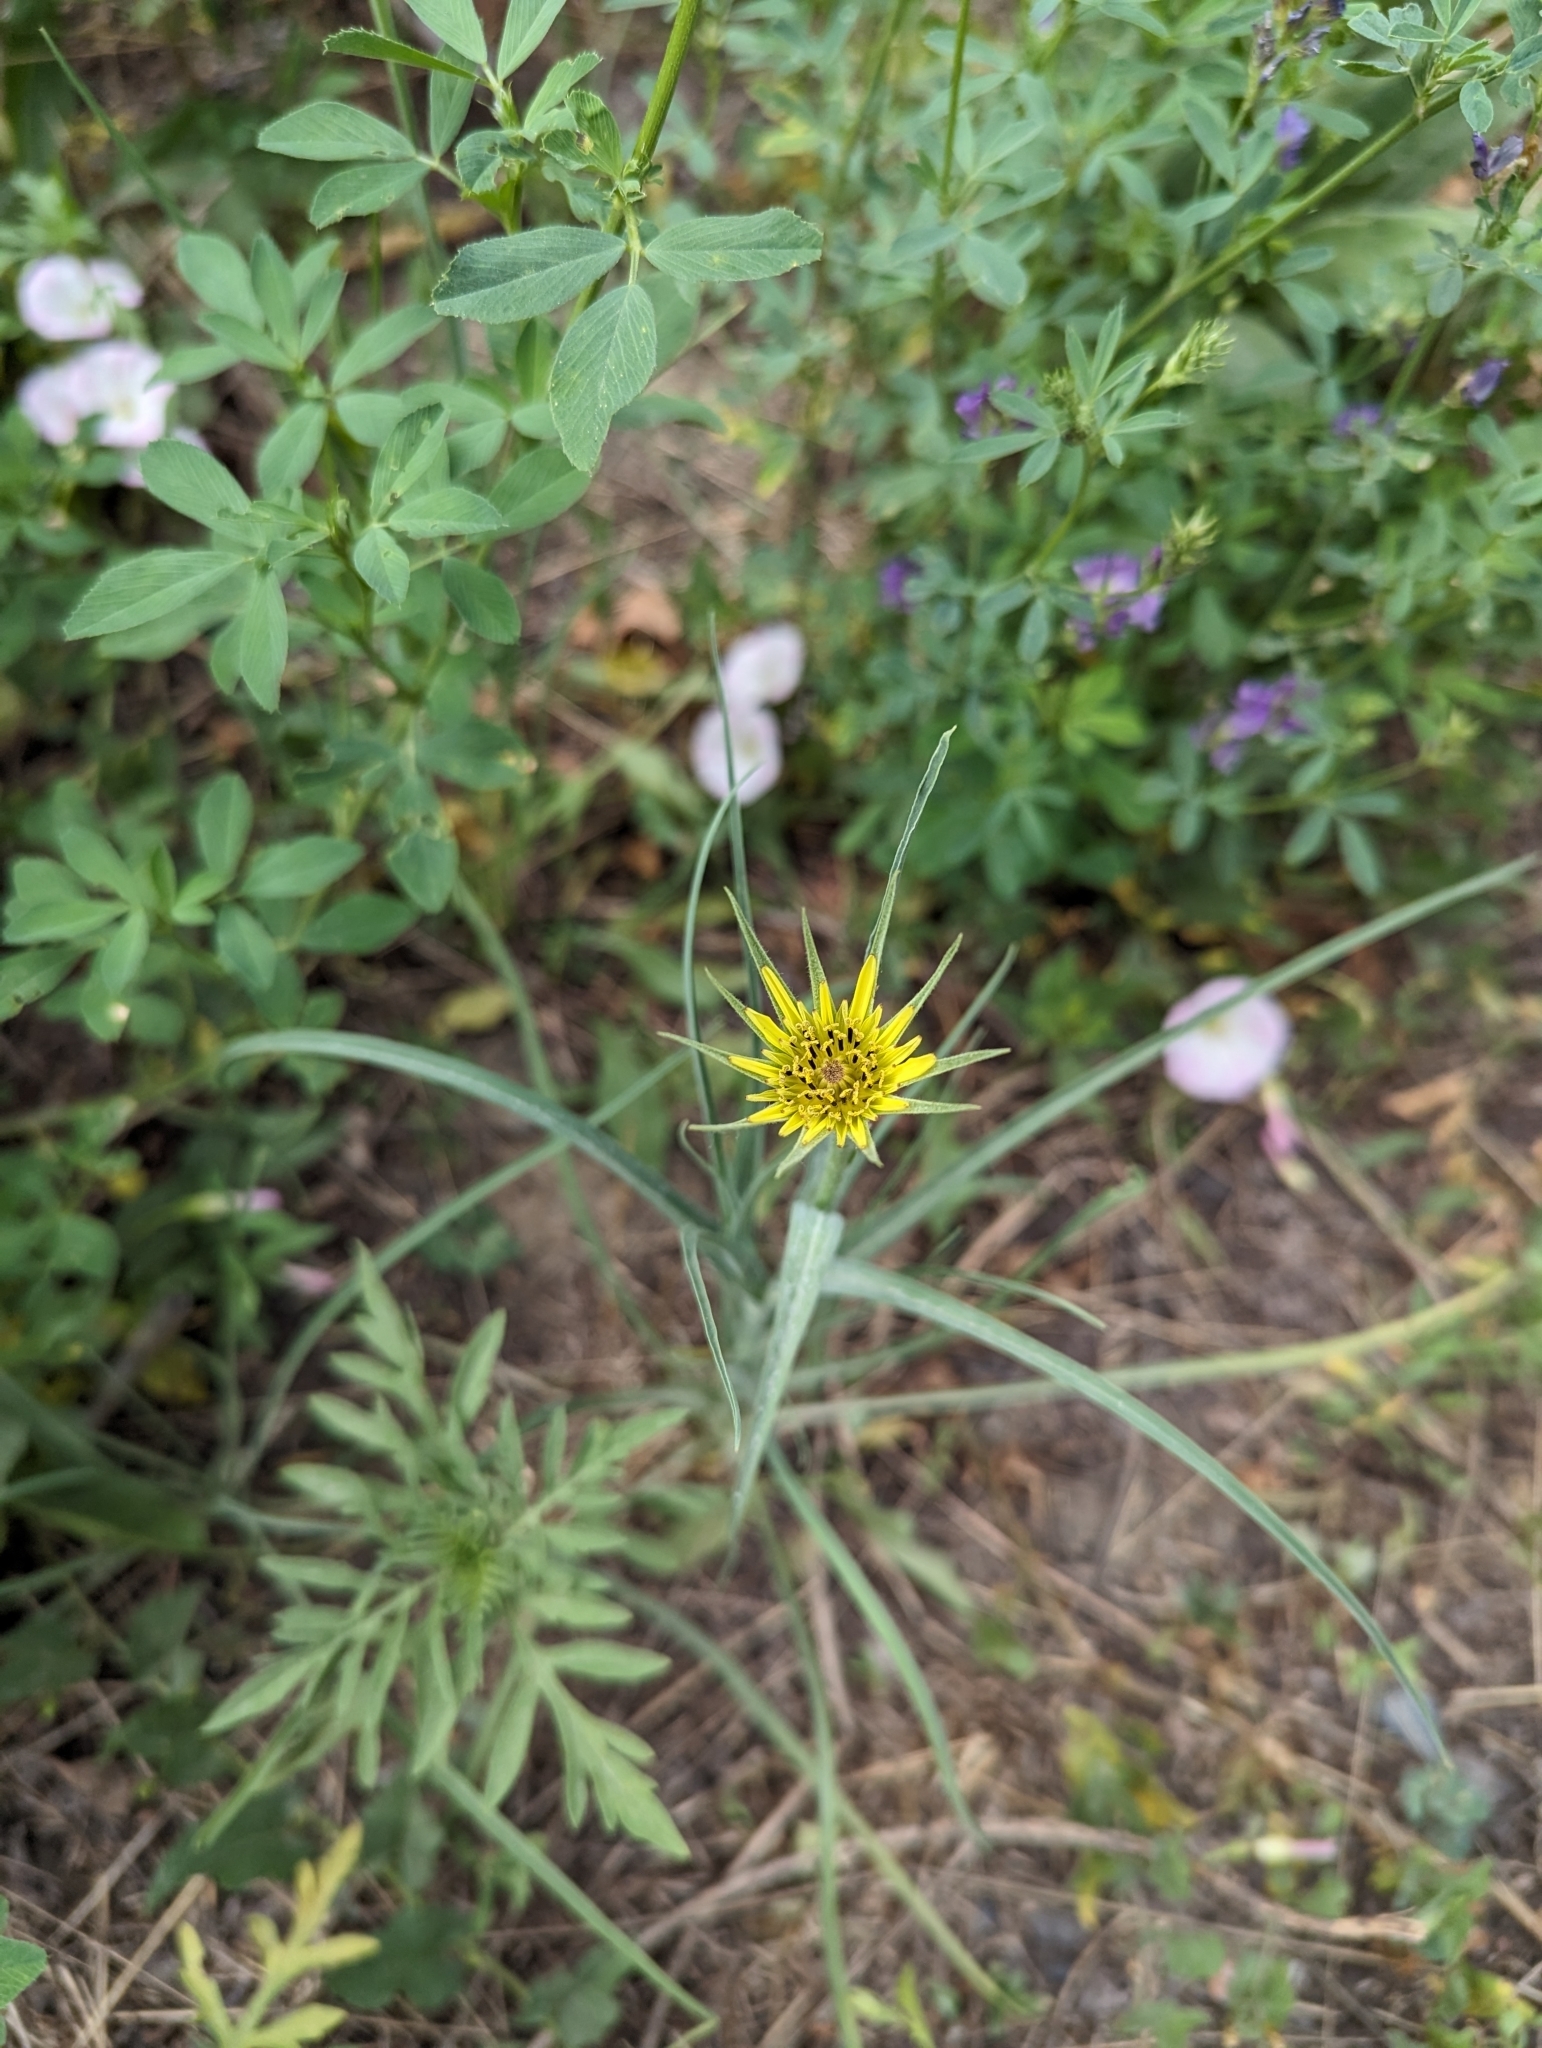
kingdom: Plantae
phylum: Tracheophyta
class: Magnoliopsida
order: Asterales
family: Asteraceae
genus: Tragopogon
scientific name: Tragopogon dubius
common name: Yellow salsify
